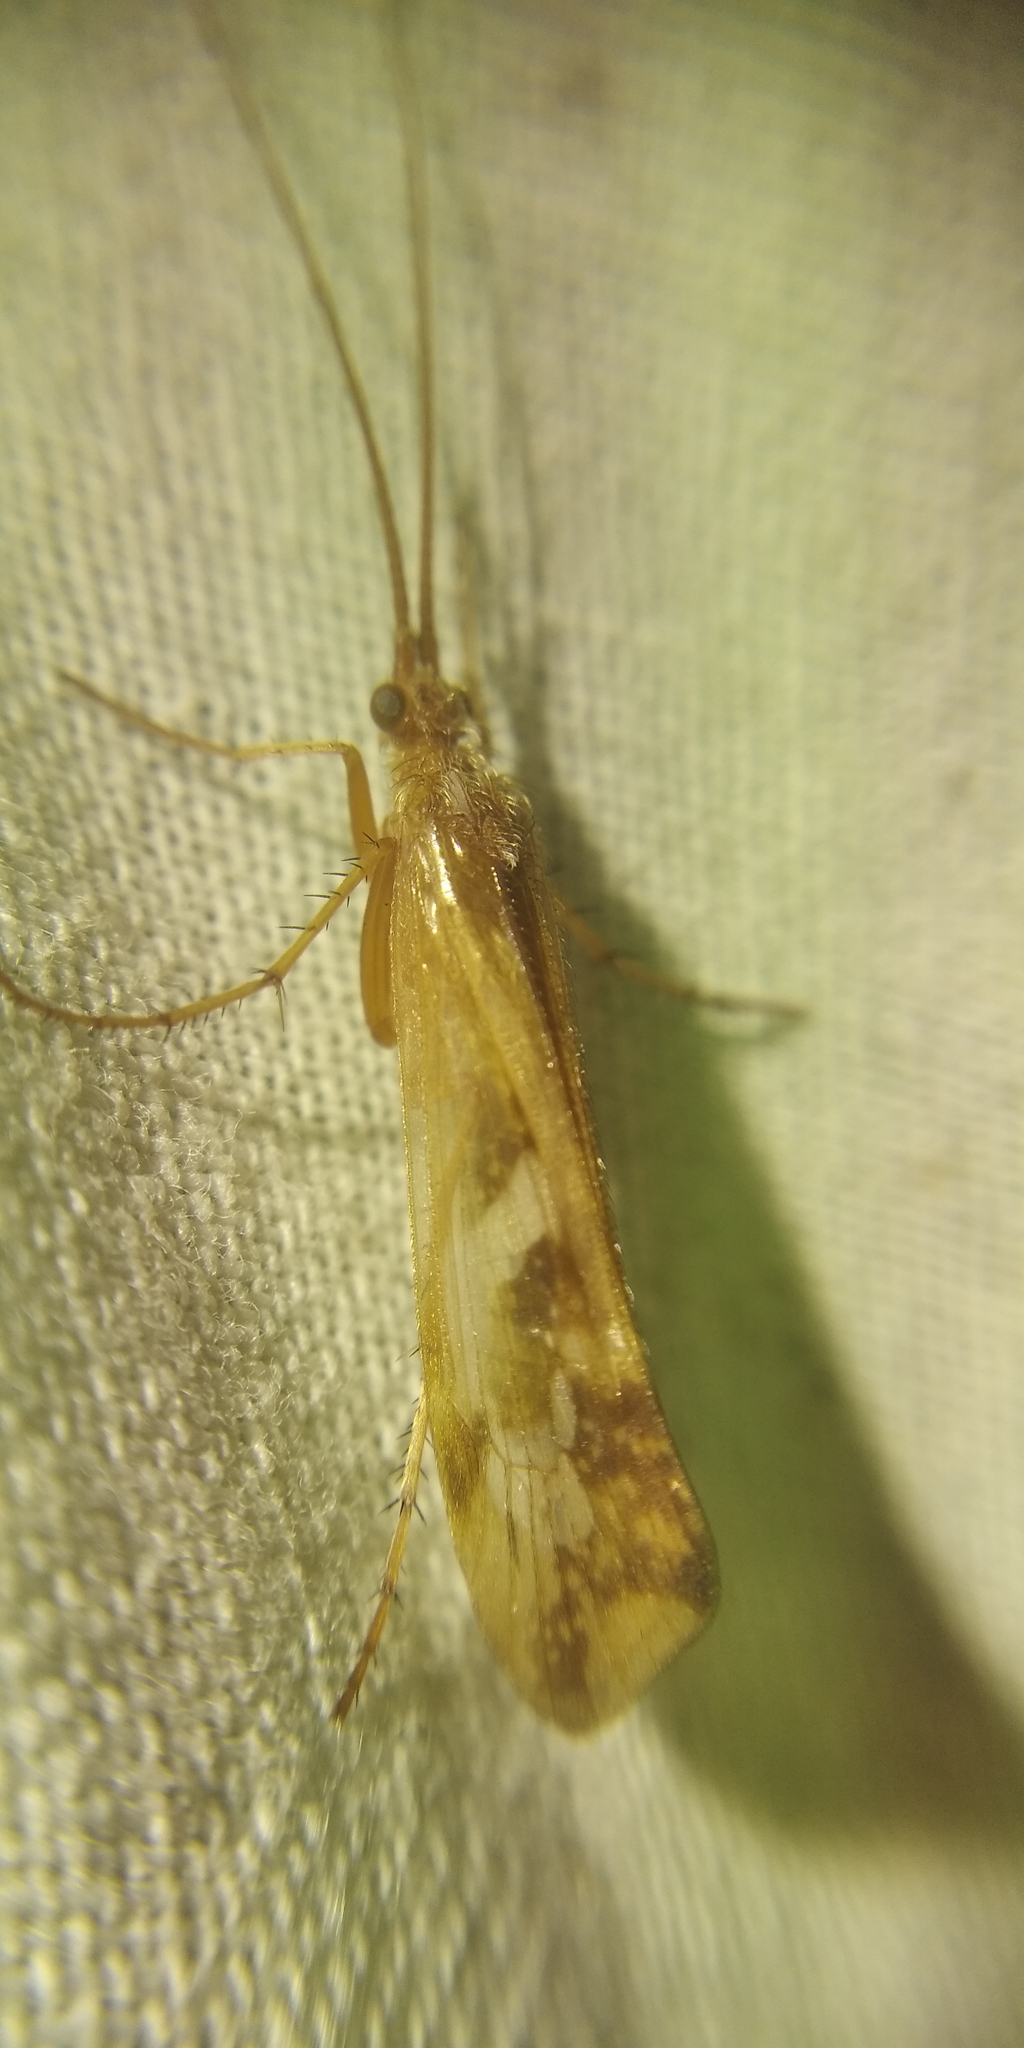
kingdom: Animalia
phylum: Arthropoda
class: Insecta
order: Trichoptera
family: Limnephilidae
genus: Limnephilus
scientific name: Limnephilus lunatus
